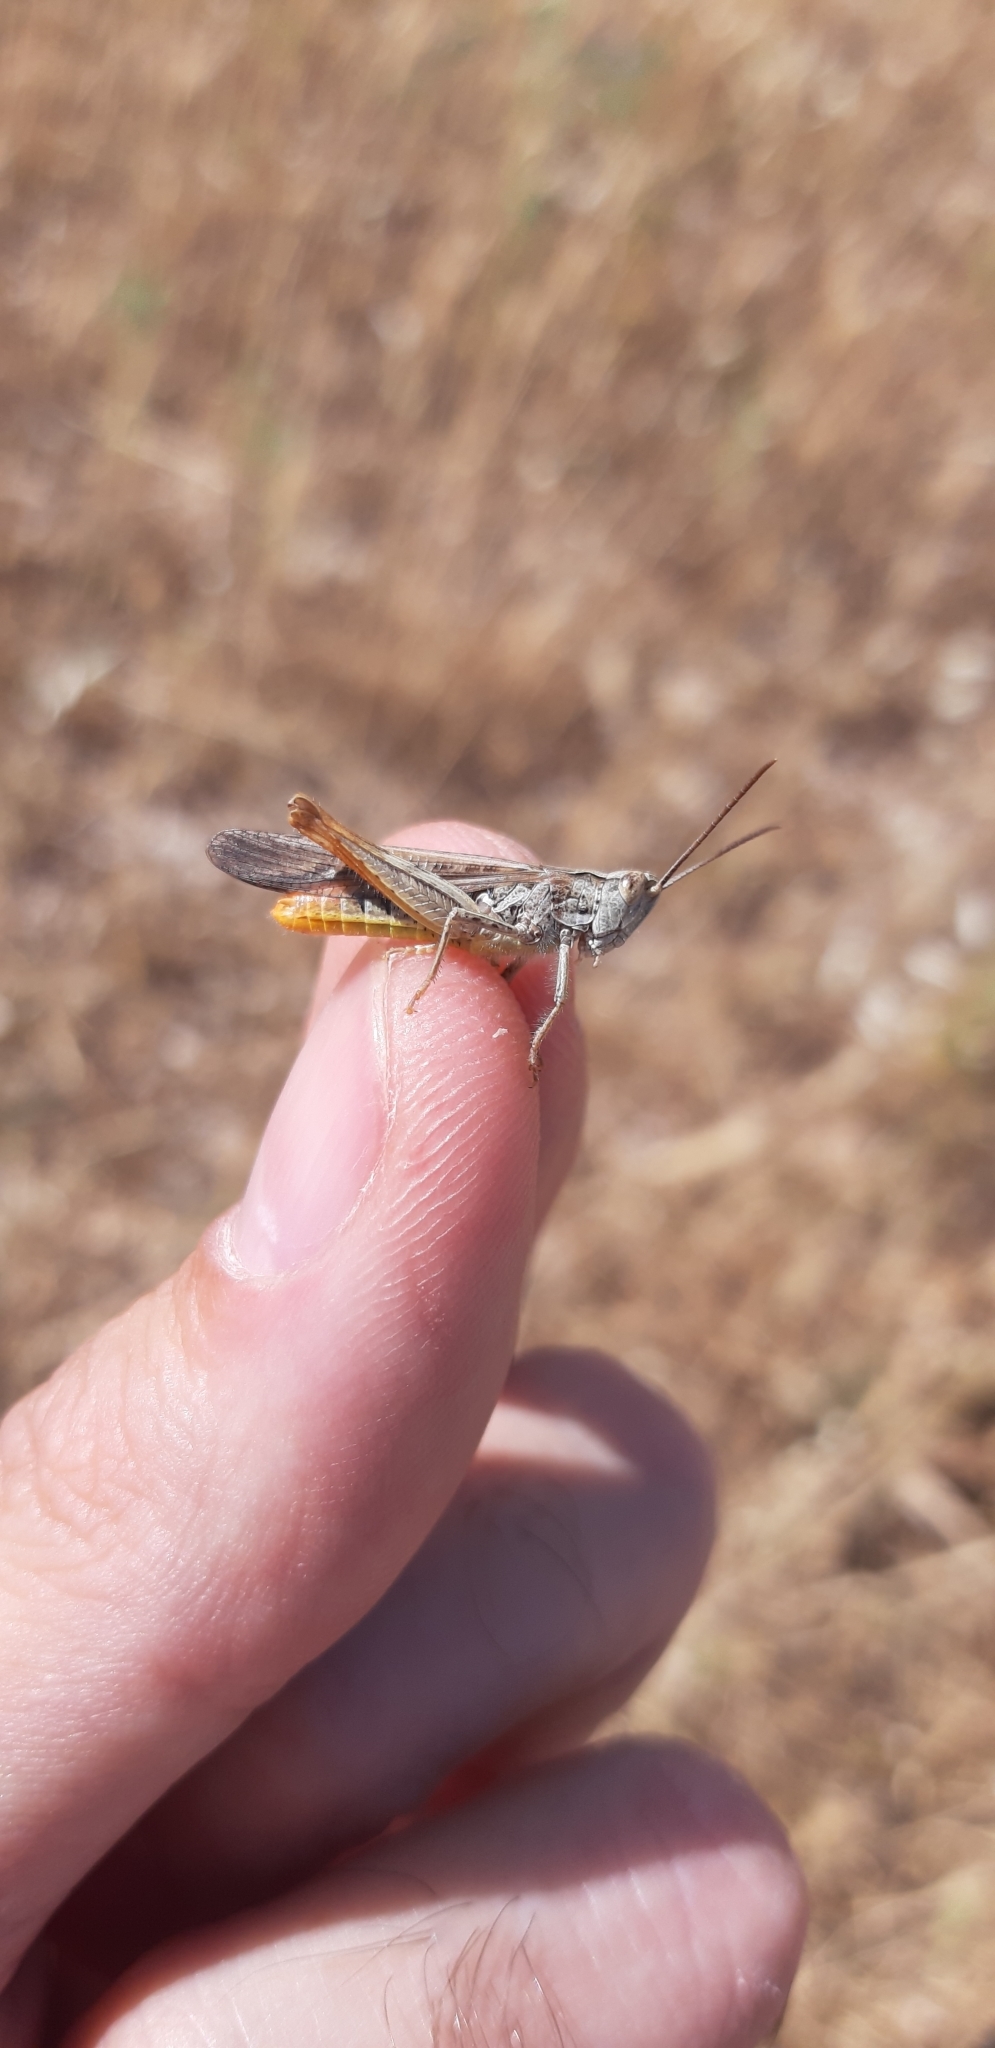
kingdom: Animalia
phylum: Arthropoda
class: Insecta
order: Orthoptera
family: Acrididae
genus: Chorthippus
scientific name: Chorthippus brunneus
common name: Field grasshopper
